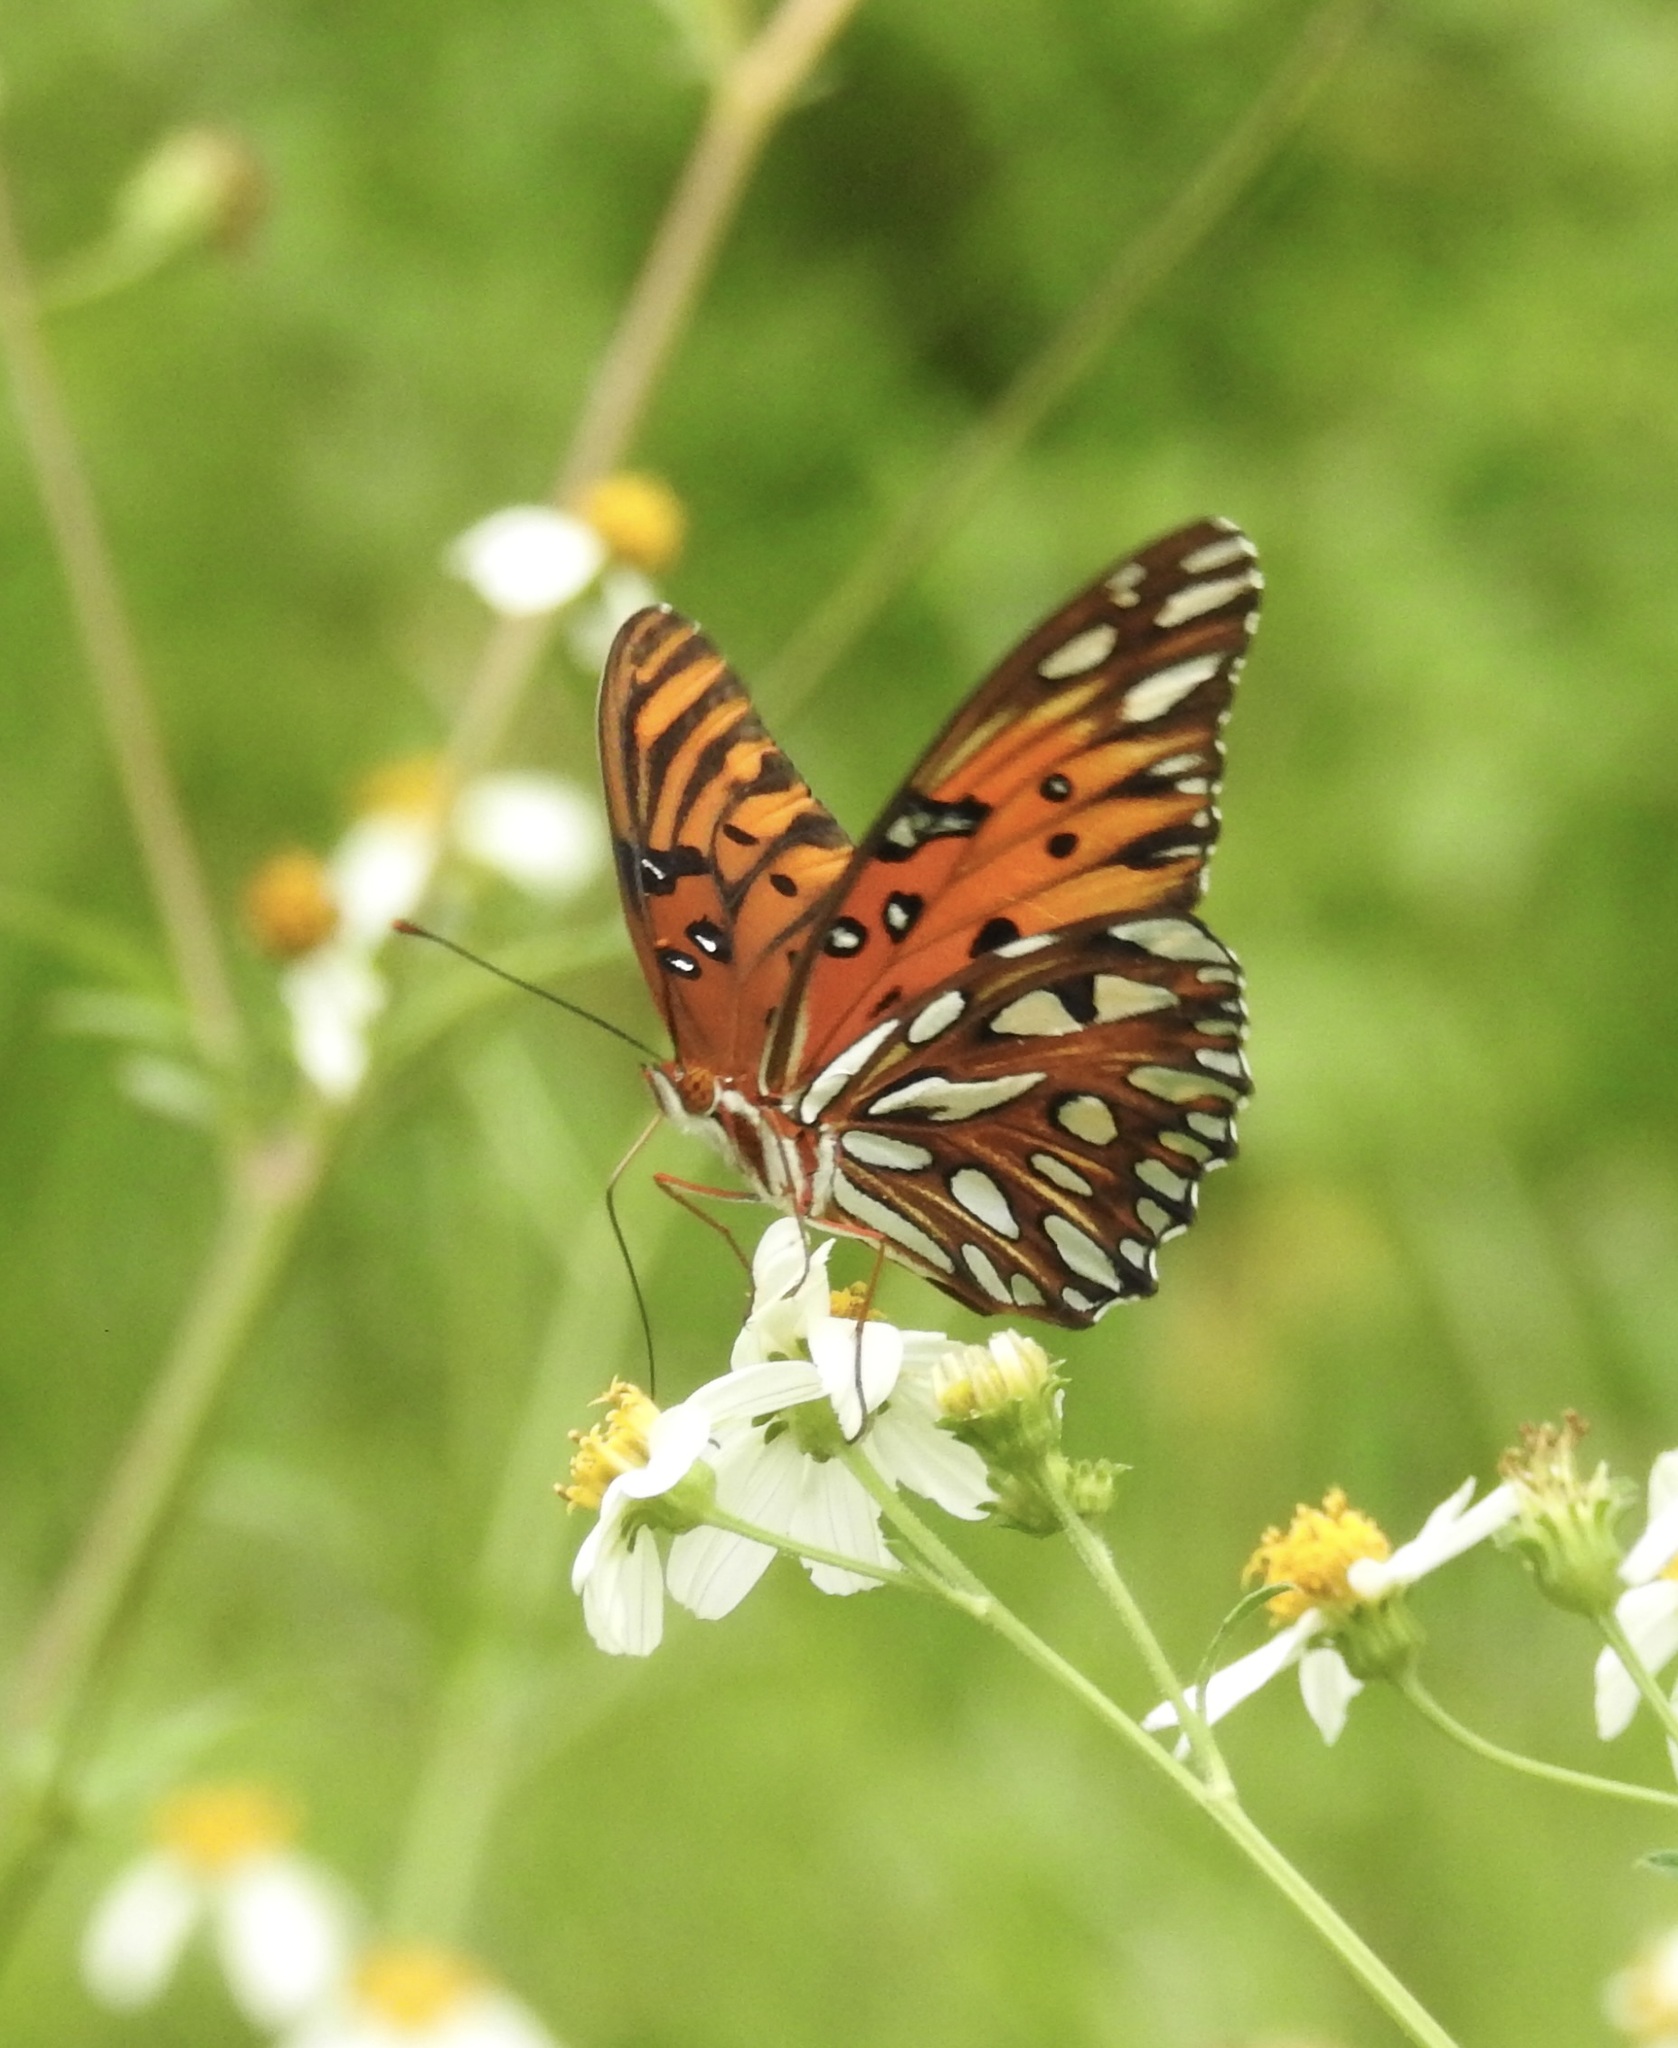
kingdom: Animalia
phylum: Arthropoda
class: Insecta
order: Lepidoptera
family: Nymphalidae
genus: Dione
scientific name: Dione vanillae
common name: Gulf fritillary
